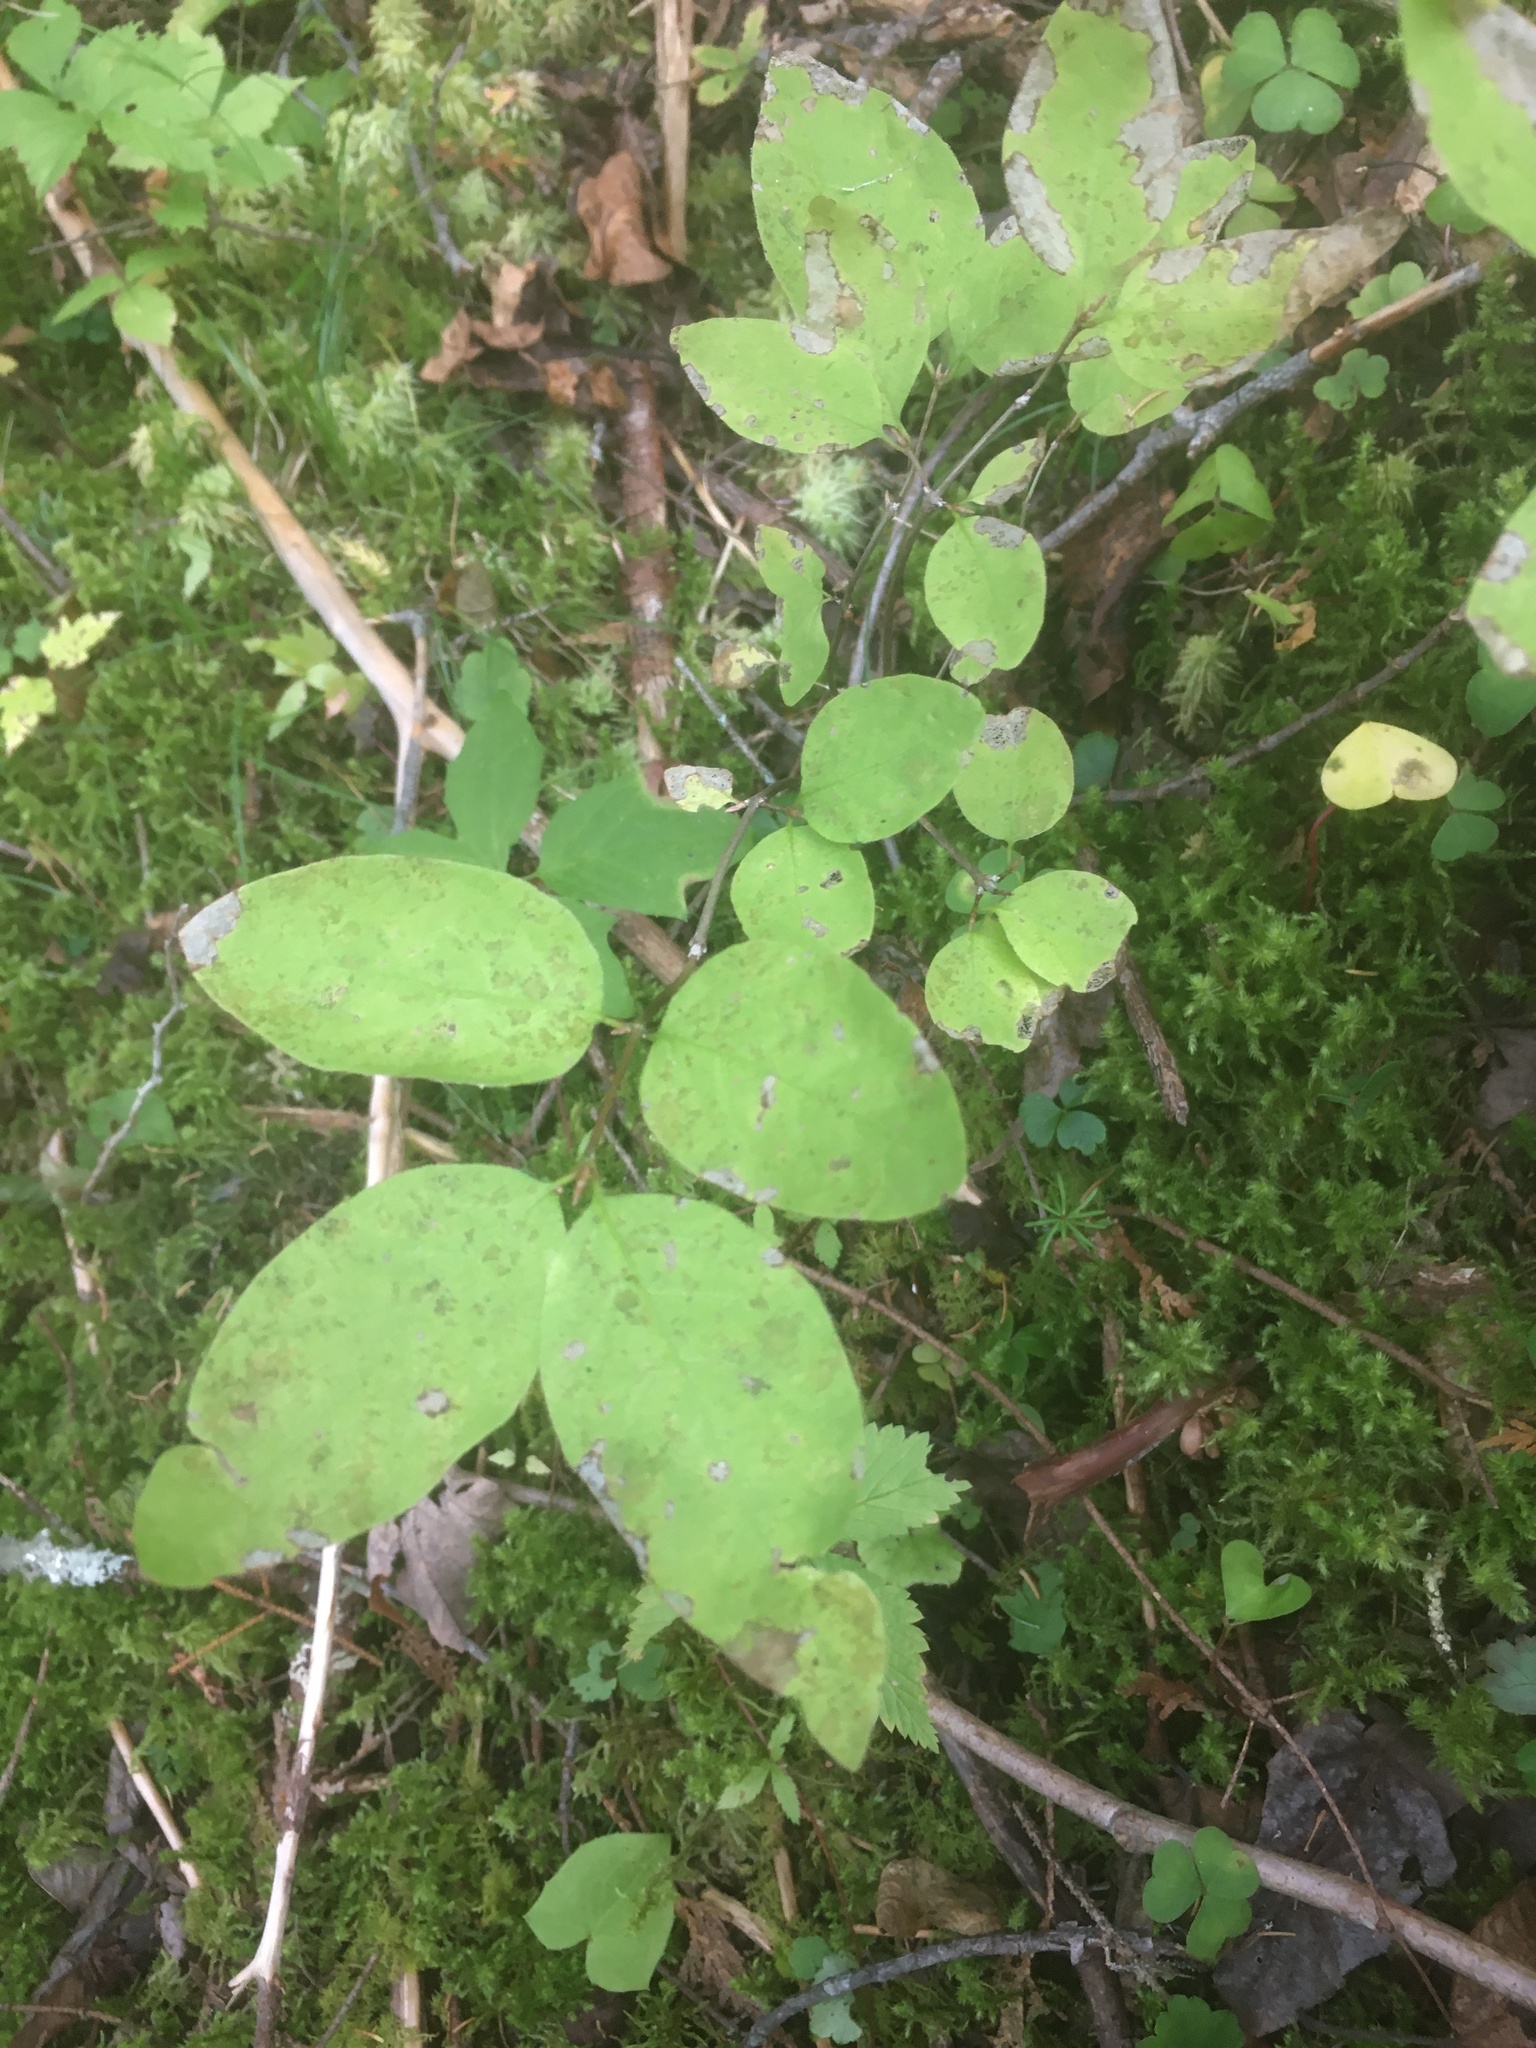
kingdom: Plantae
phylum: Tracheophyta
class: Magnoliopsida
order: Dipsacales
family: Caprifoliaceae
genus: Lonicera
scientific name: Lonicera canadensis
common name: American fly-honeysuckle
